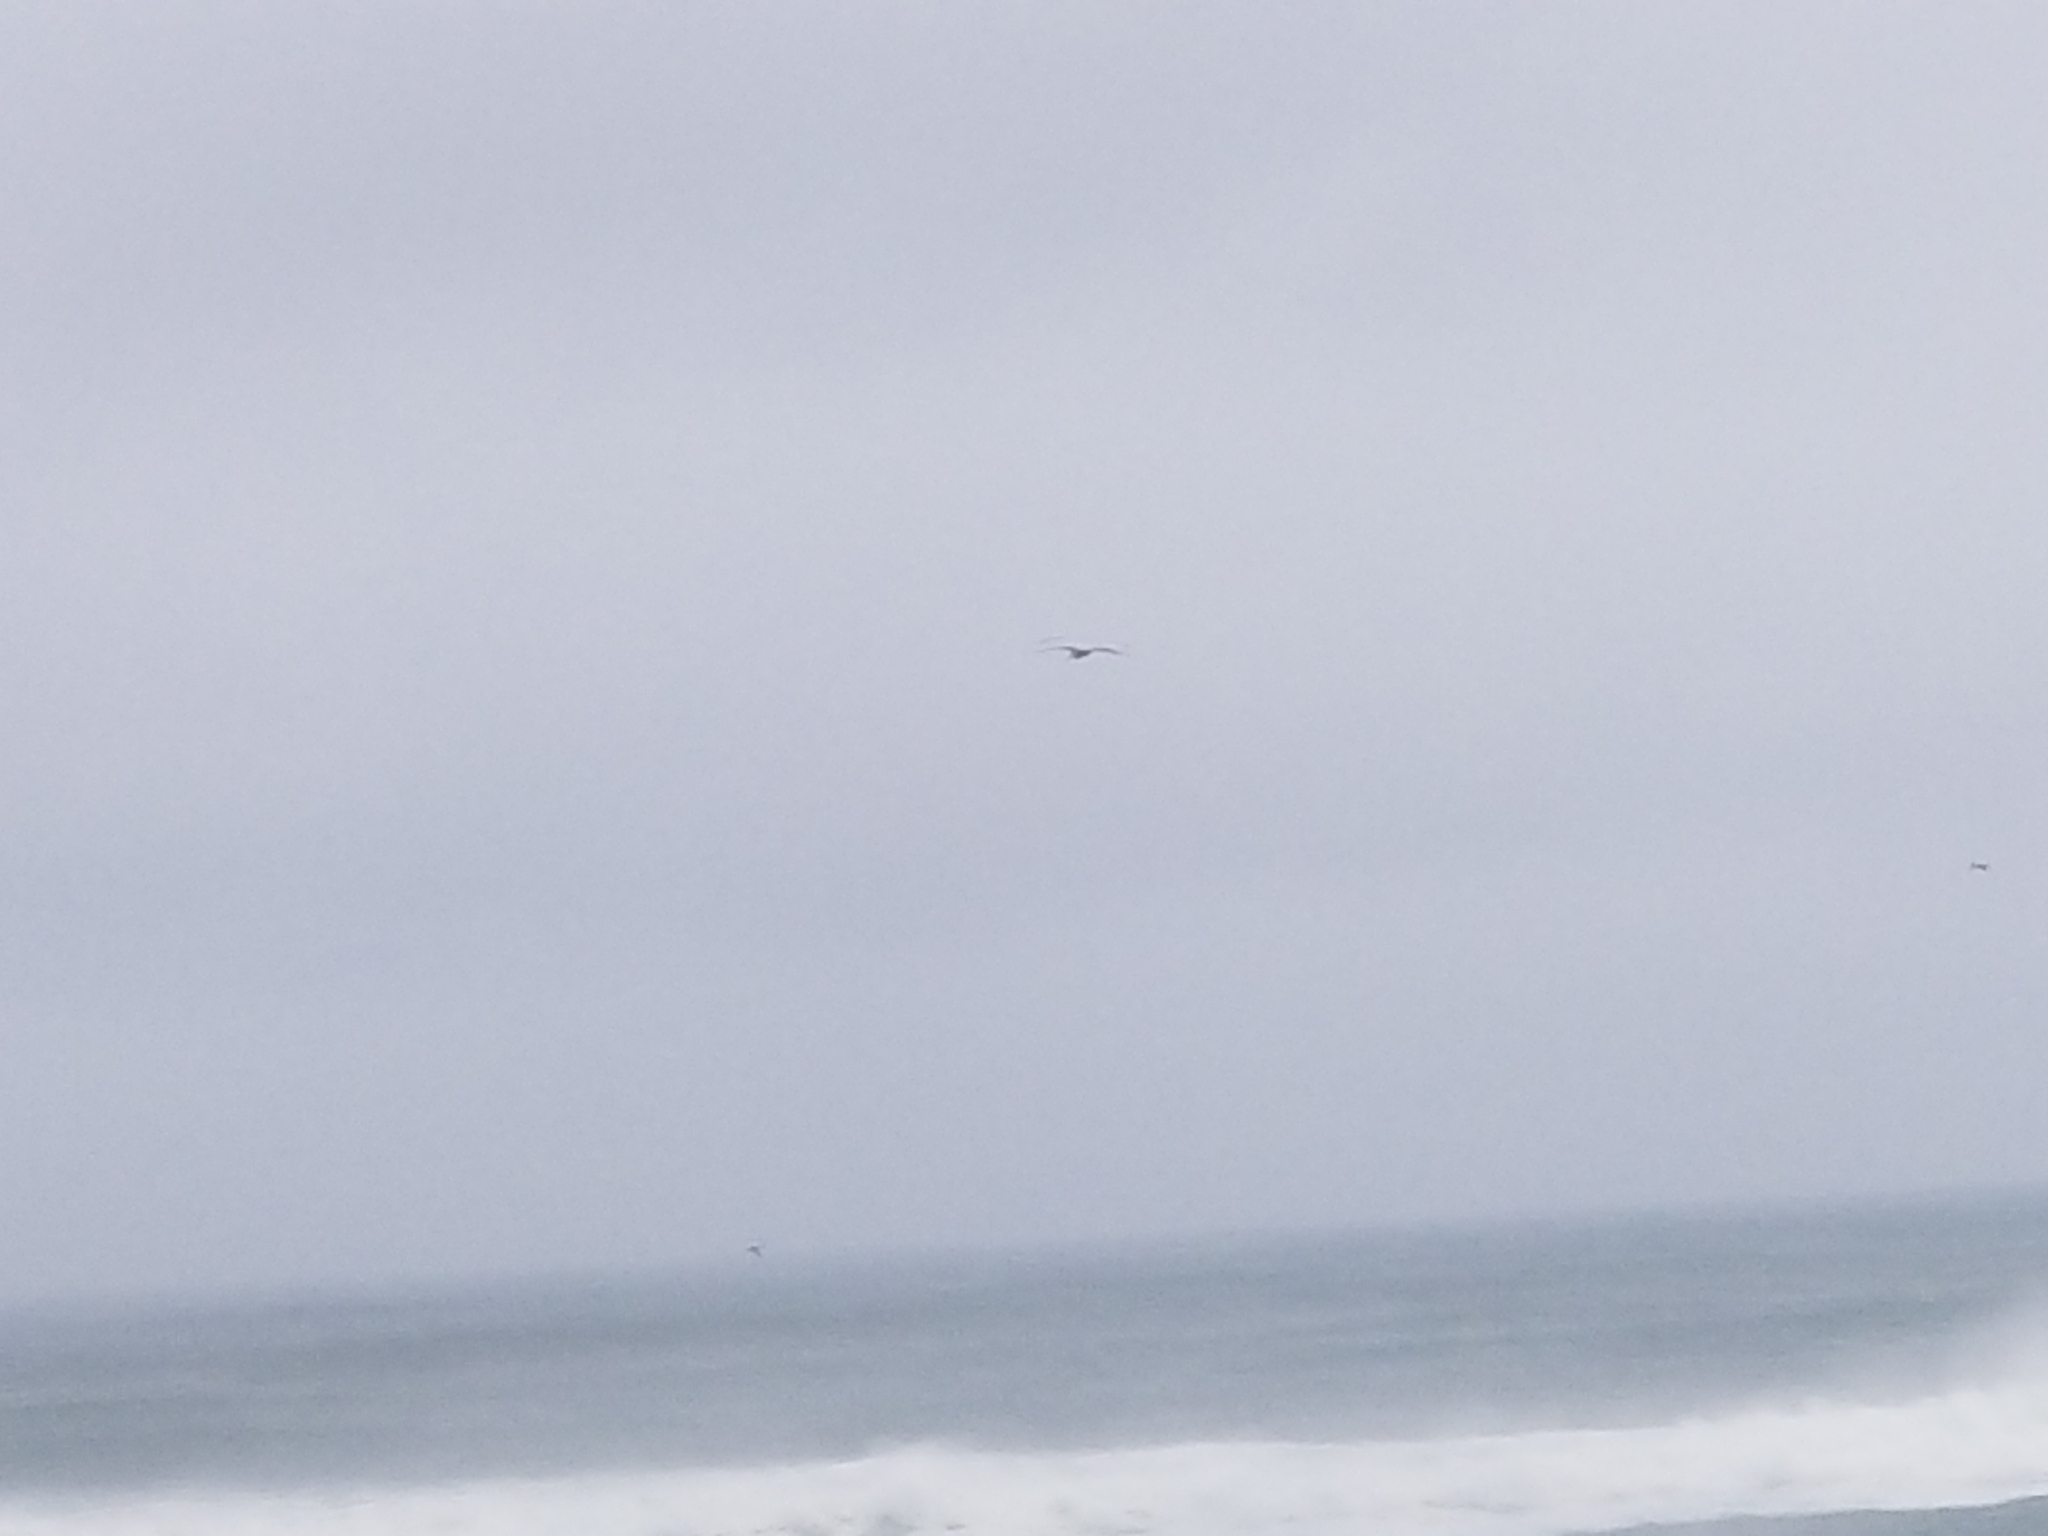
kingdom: Animalia
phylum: Chordata
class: Aves
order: Pelecaniformes
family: Pelecanidae
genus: Pelecanus
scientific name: Pelecanus occidentalis
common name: Brown pelican
